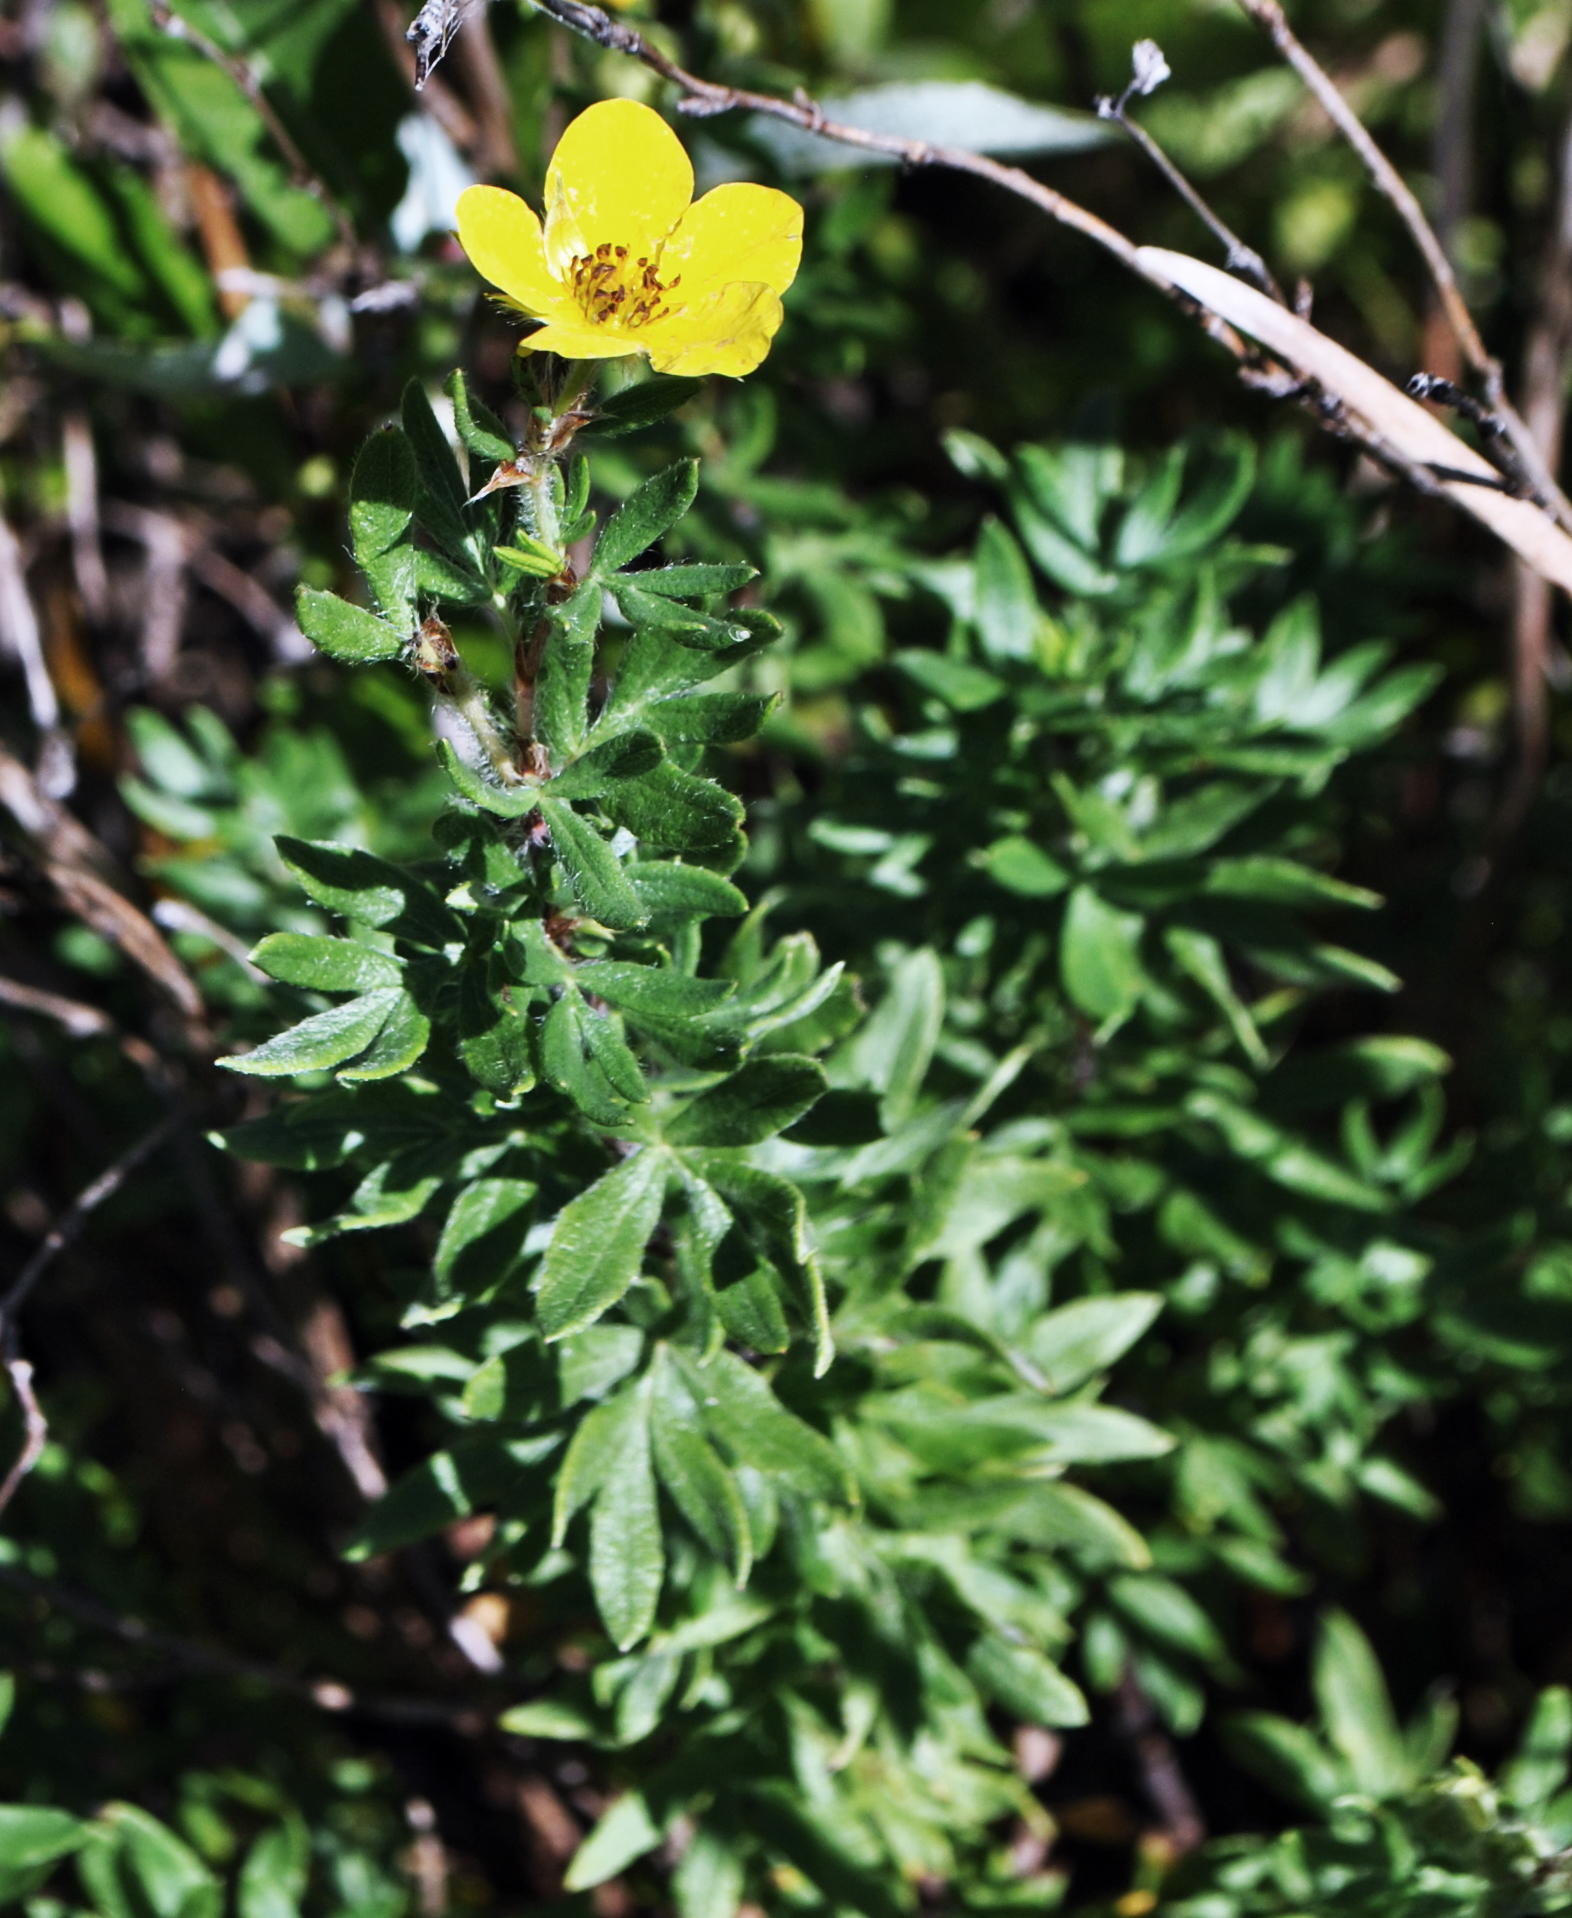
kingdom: Plantae
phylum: Tracheophyta
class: Magnoliopsida
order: Rosales
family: Rosaceae
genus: Dasiphora
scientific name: Dasiphora fruticosa
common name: Shrubby cinquefoil
